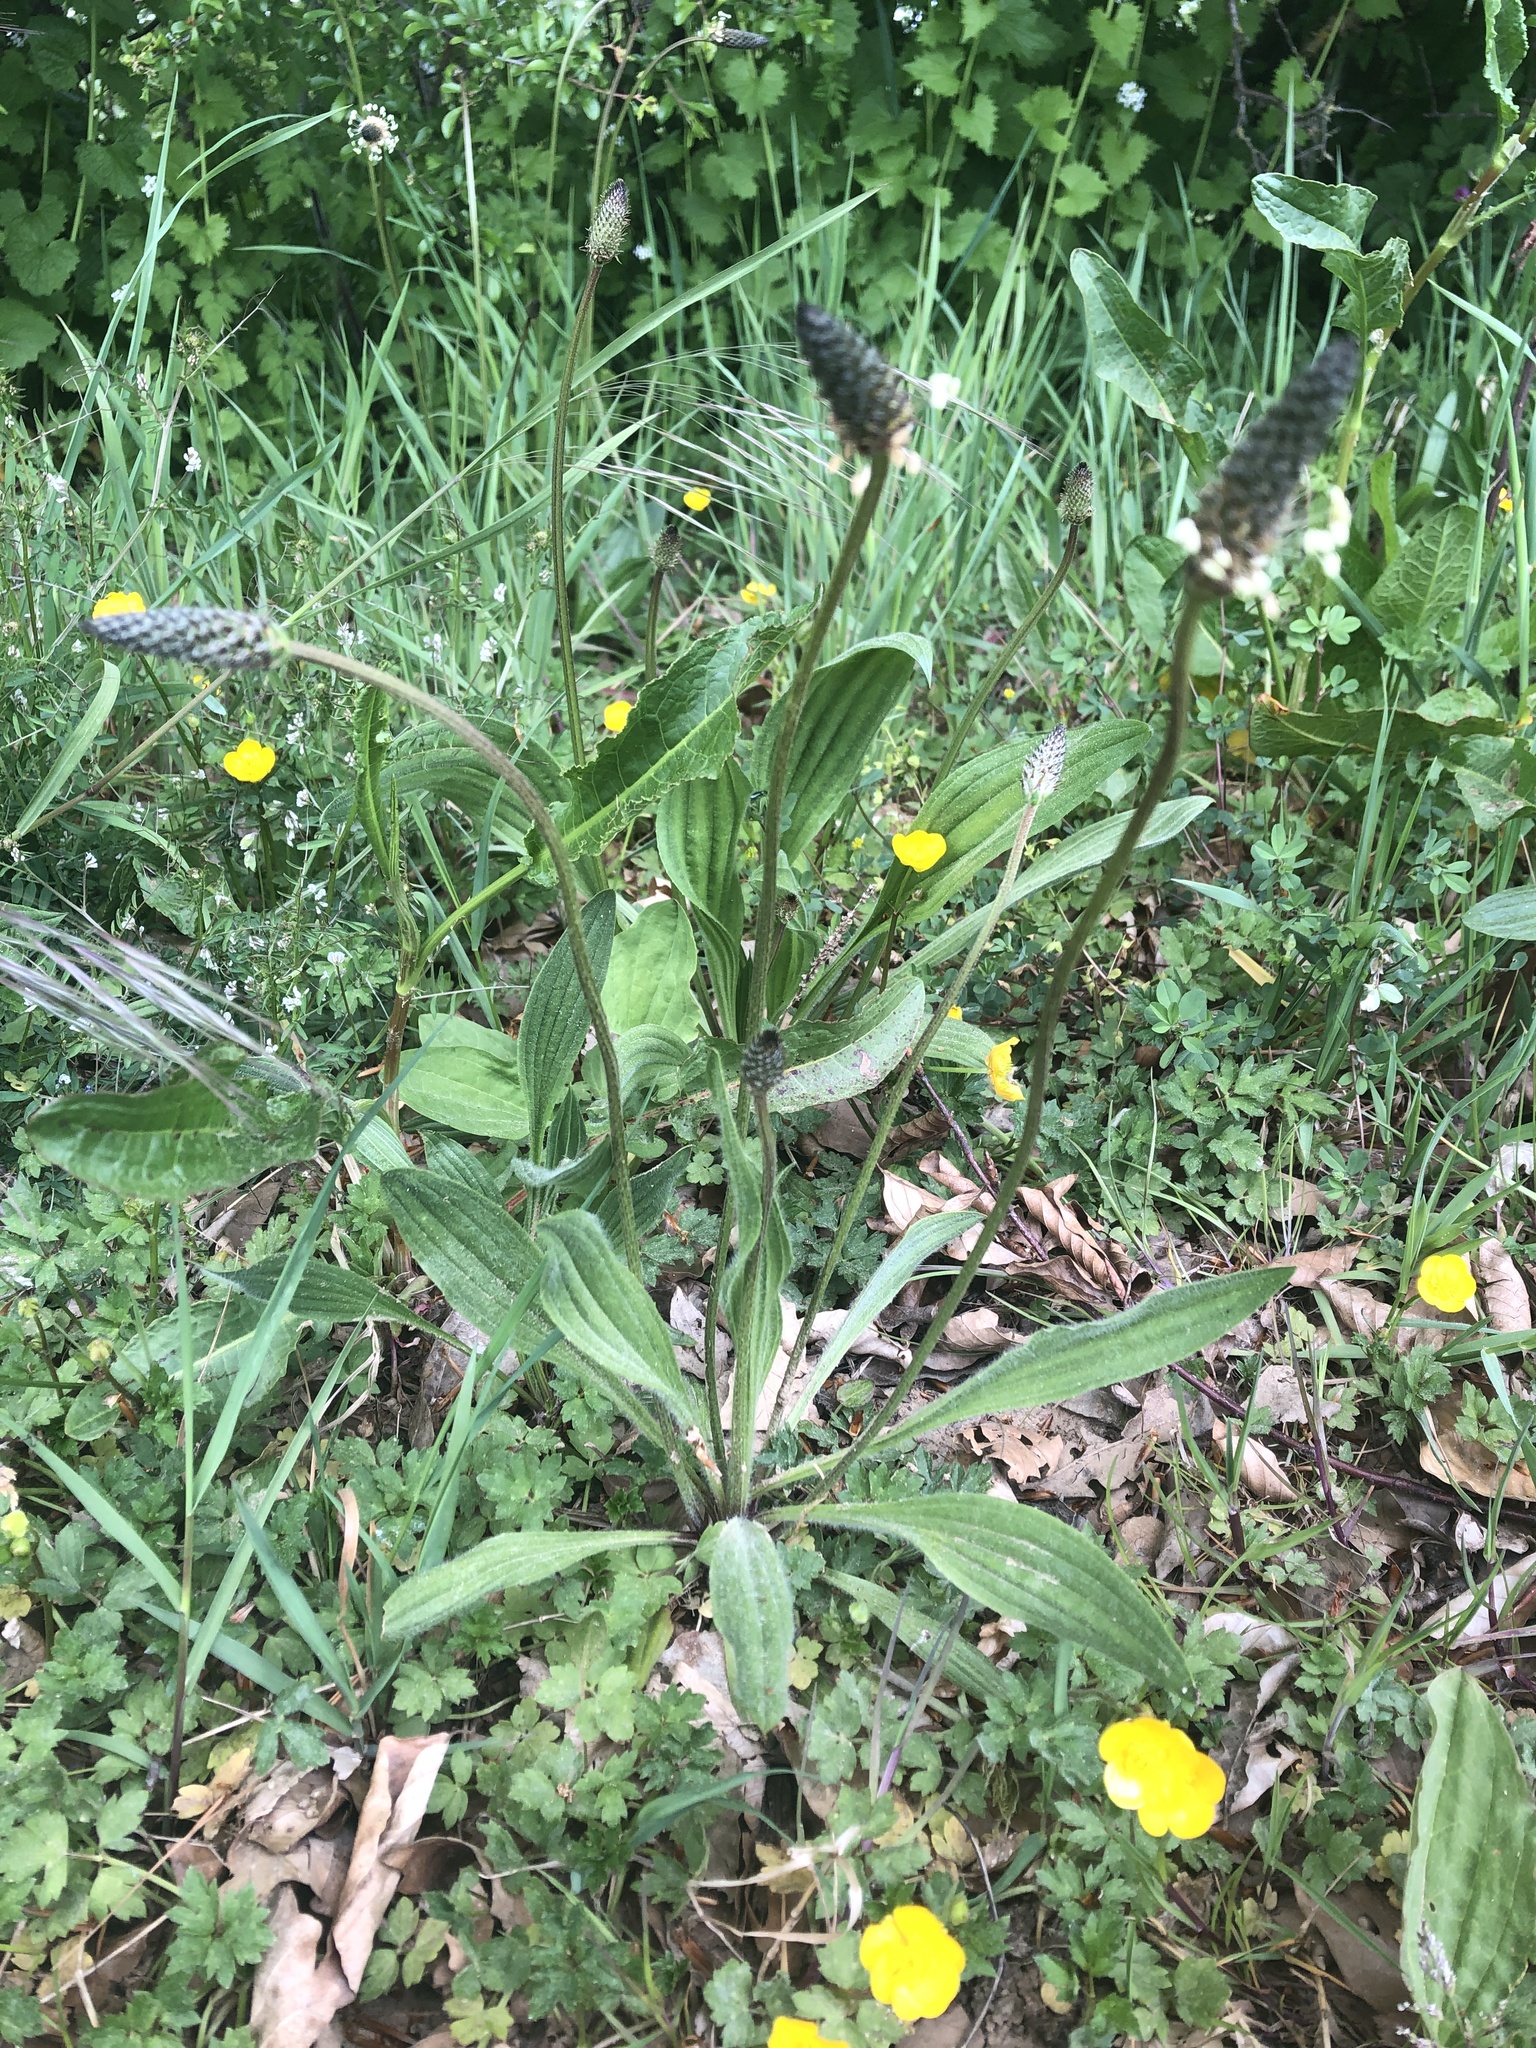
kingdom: Plantae
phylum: Tracheophyta
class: Magnoliopsida
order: Lamiales
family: Plantaginaceae
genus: Plantago
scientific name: Plantago lanceolata
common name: Ribwort plantain
